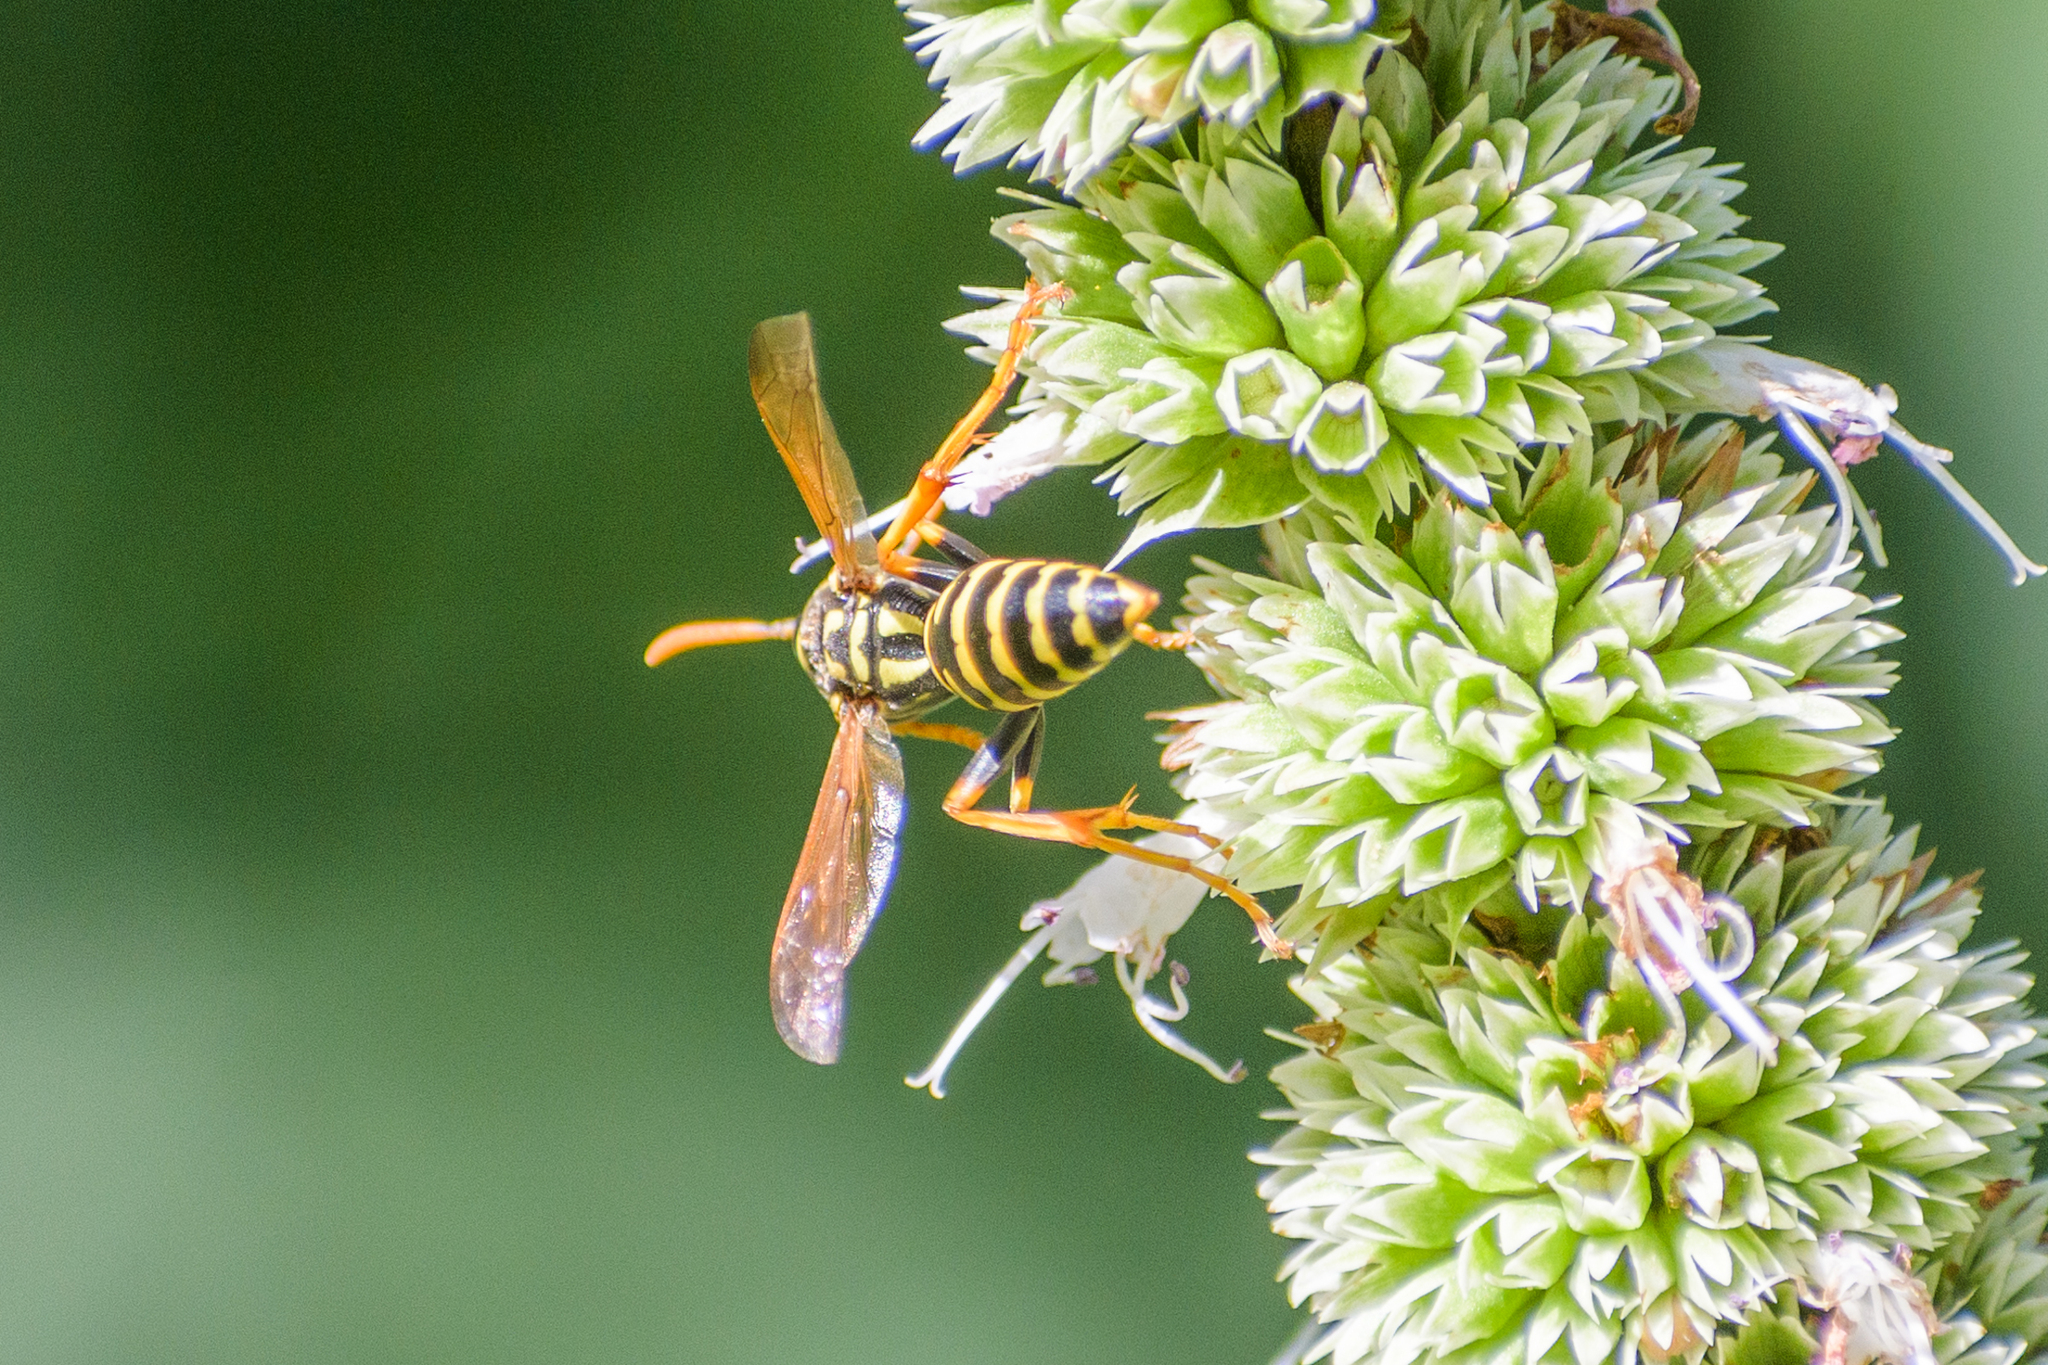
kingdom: Animalia
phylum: Arthropoda
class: Insecta
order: Hymenoptera
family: Eumenidae
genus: Polistes
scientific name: Polistes dominula
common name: Paper wasp
